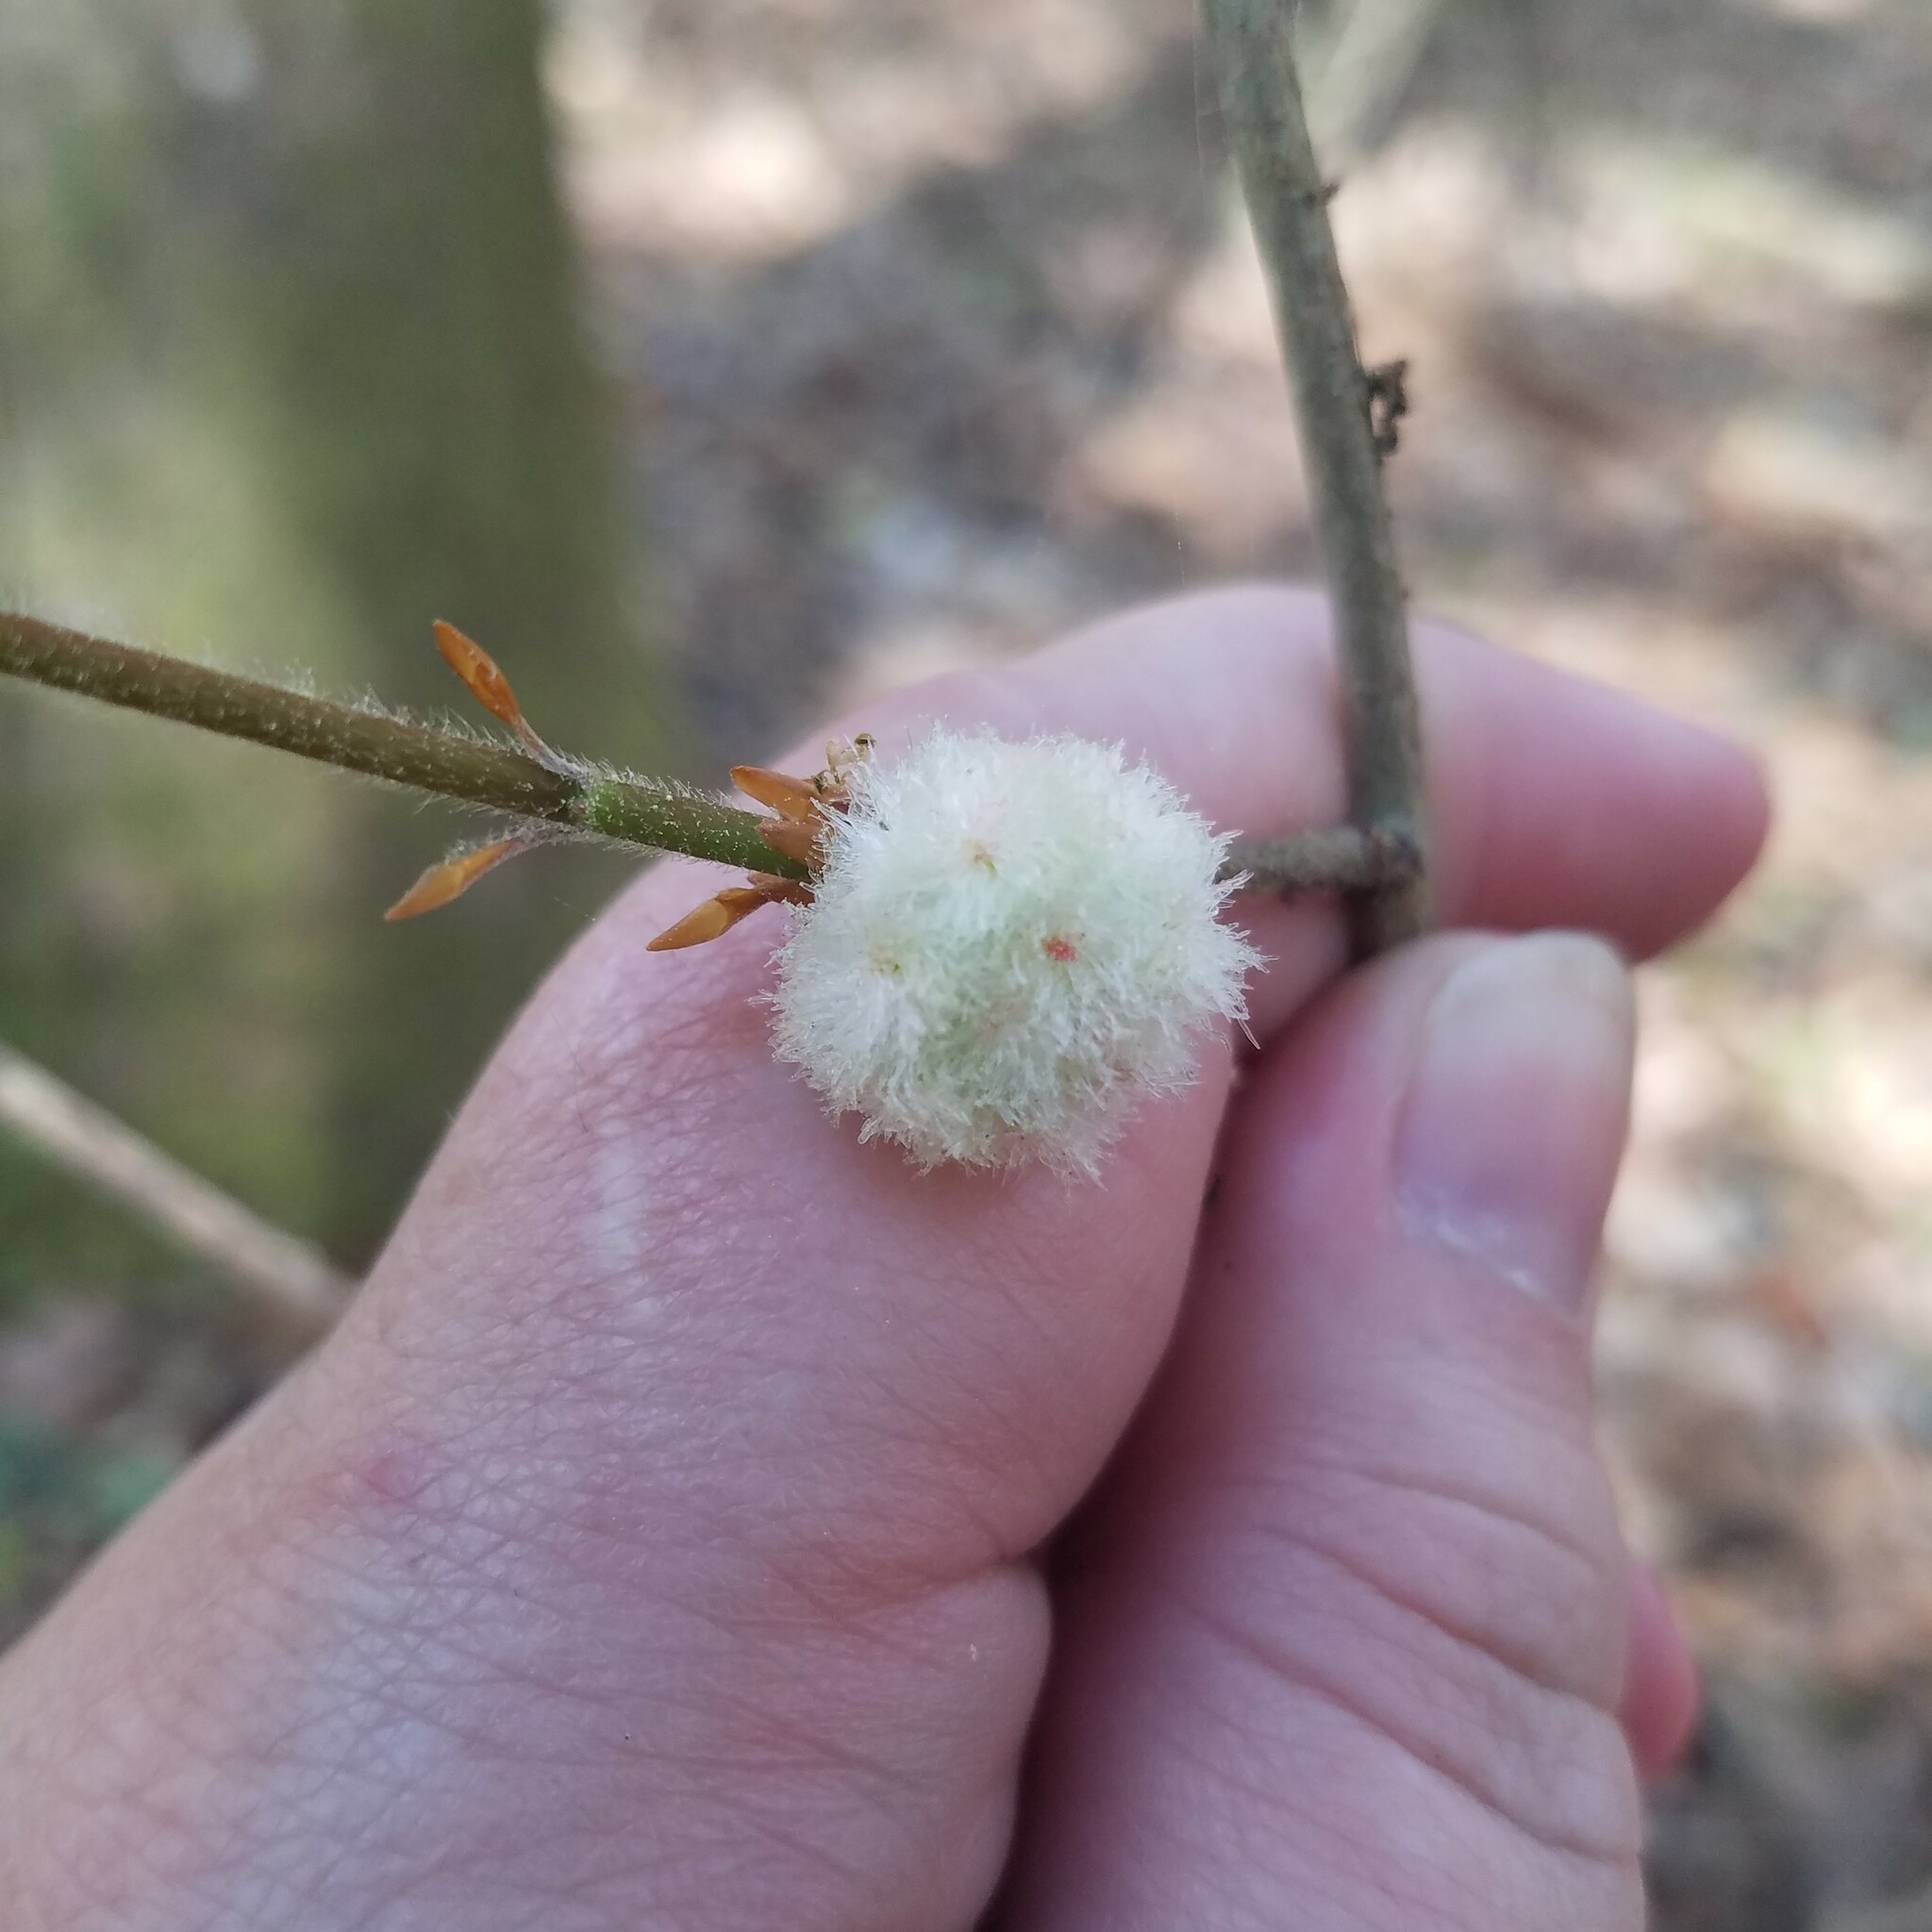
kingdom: Animalia
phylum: Arthropoda
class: Insecta
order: Hymenoptera
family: Cynipidae
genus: Callirhytis
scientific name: Callirhytis
